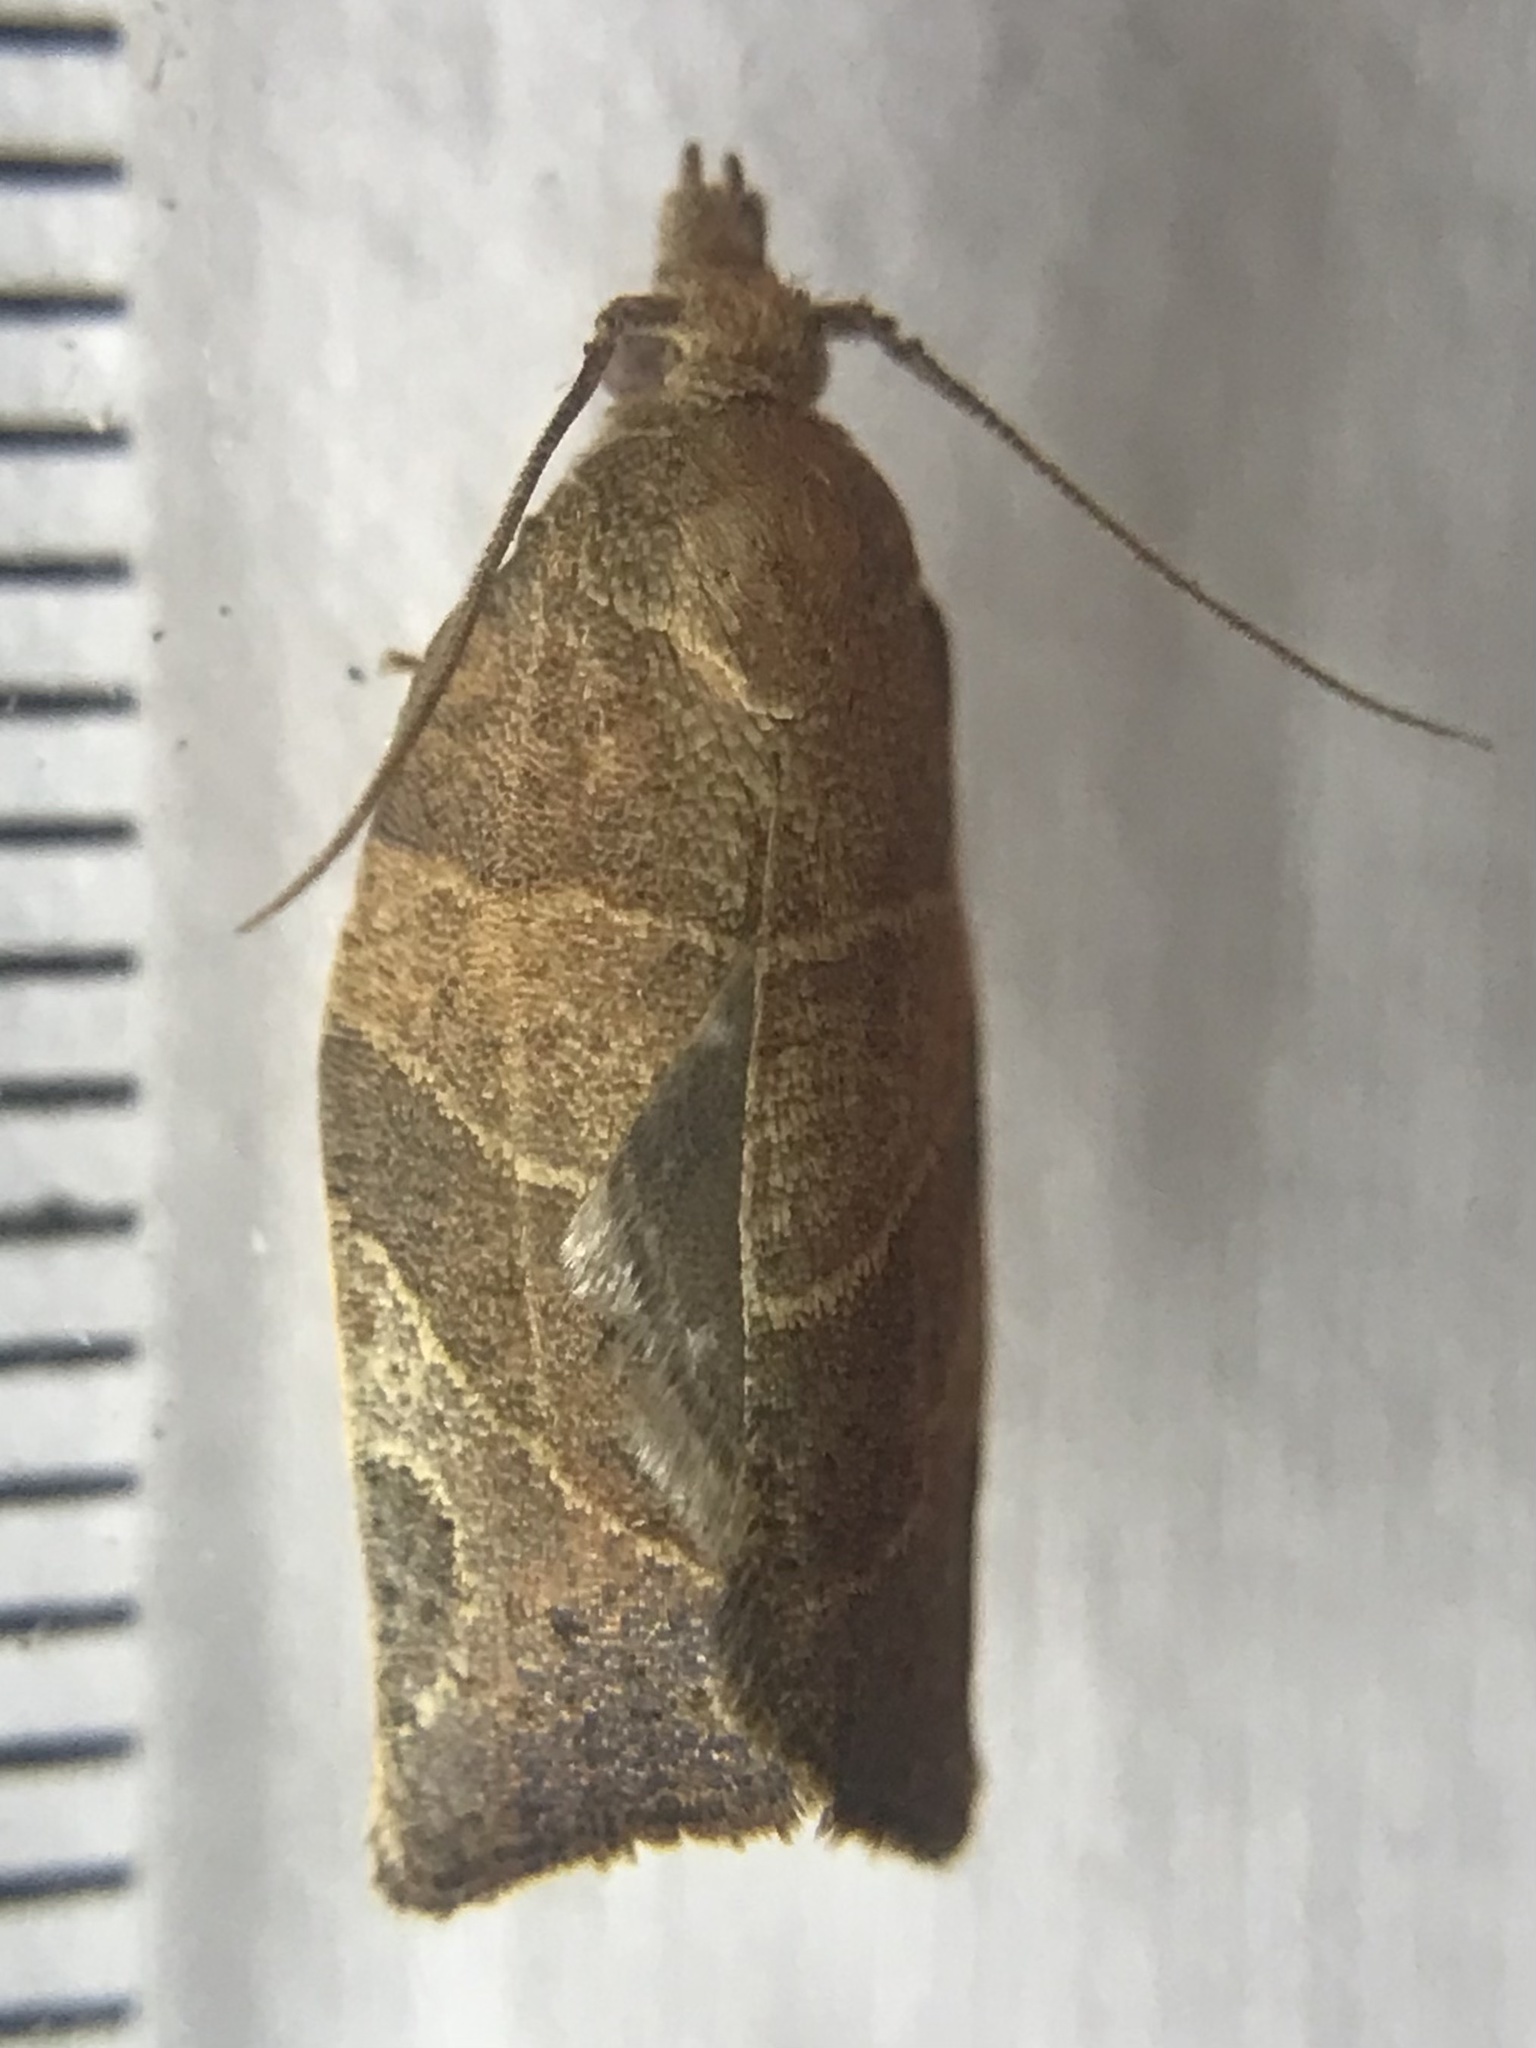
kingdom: Animalia
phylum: Arthropoda
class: Insecta
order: Lepidoptera
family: Tortricidae
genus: Pandemis
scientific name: Pandemis limitata
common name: Three-lined leafroller moth
